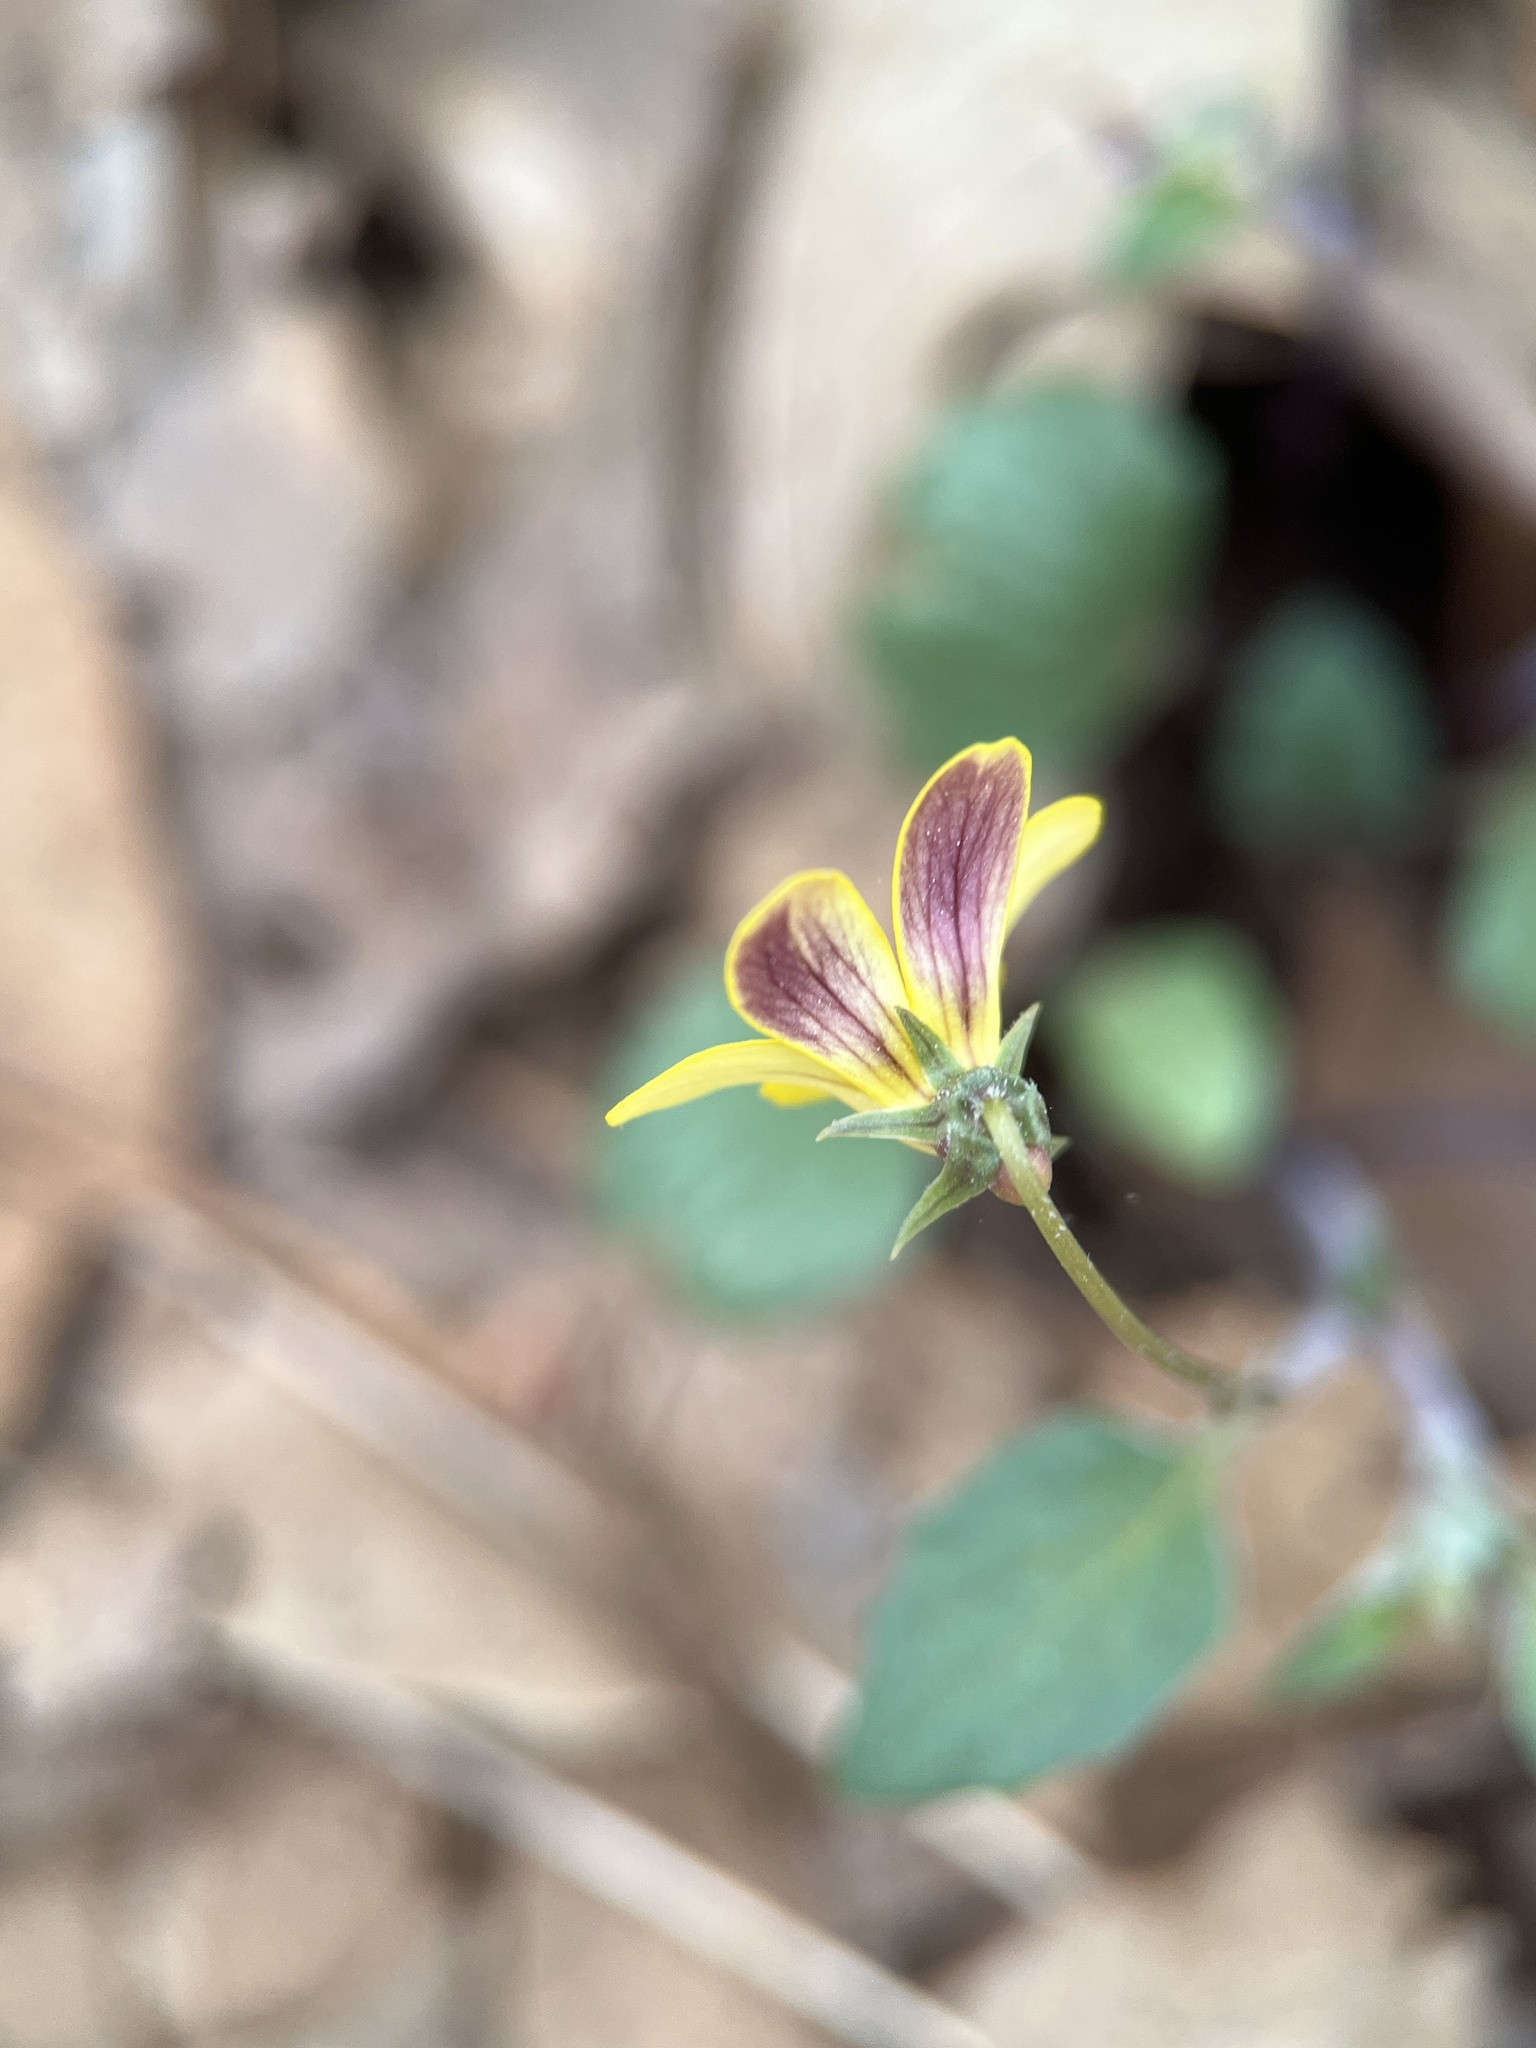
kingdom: Plantae
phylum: Tracheophyta
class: Magnoliopsida
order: Malpighiales
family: Violaceae
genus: Viola
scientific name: Viola purpurea
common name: Pine violet
